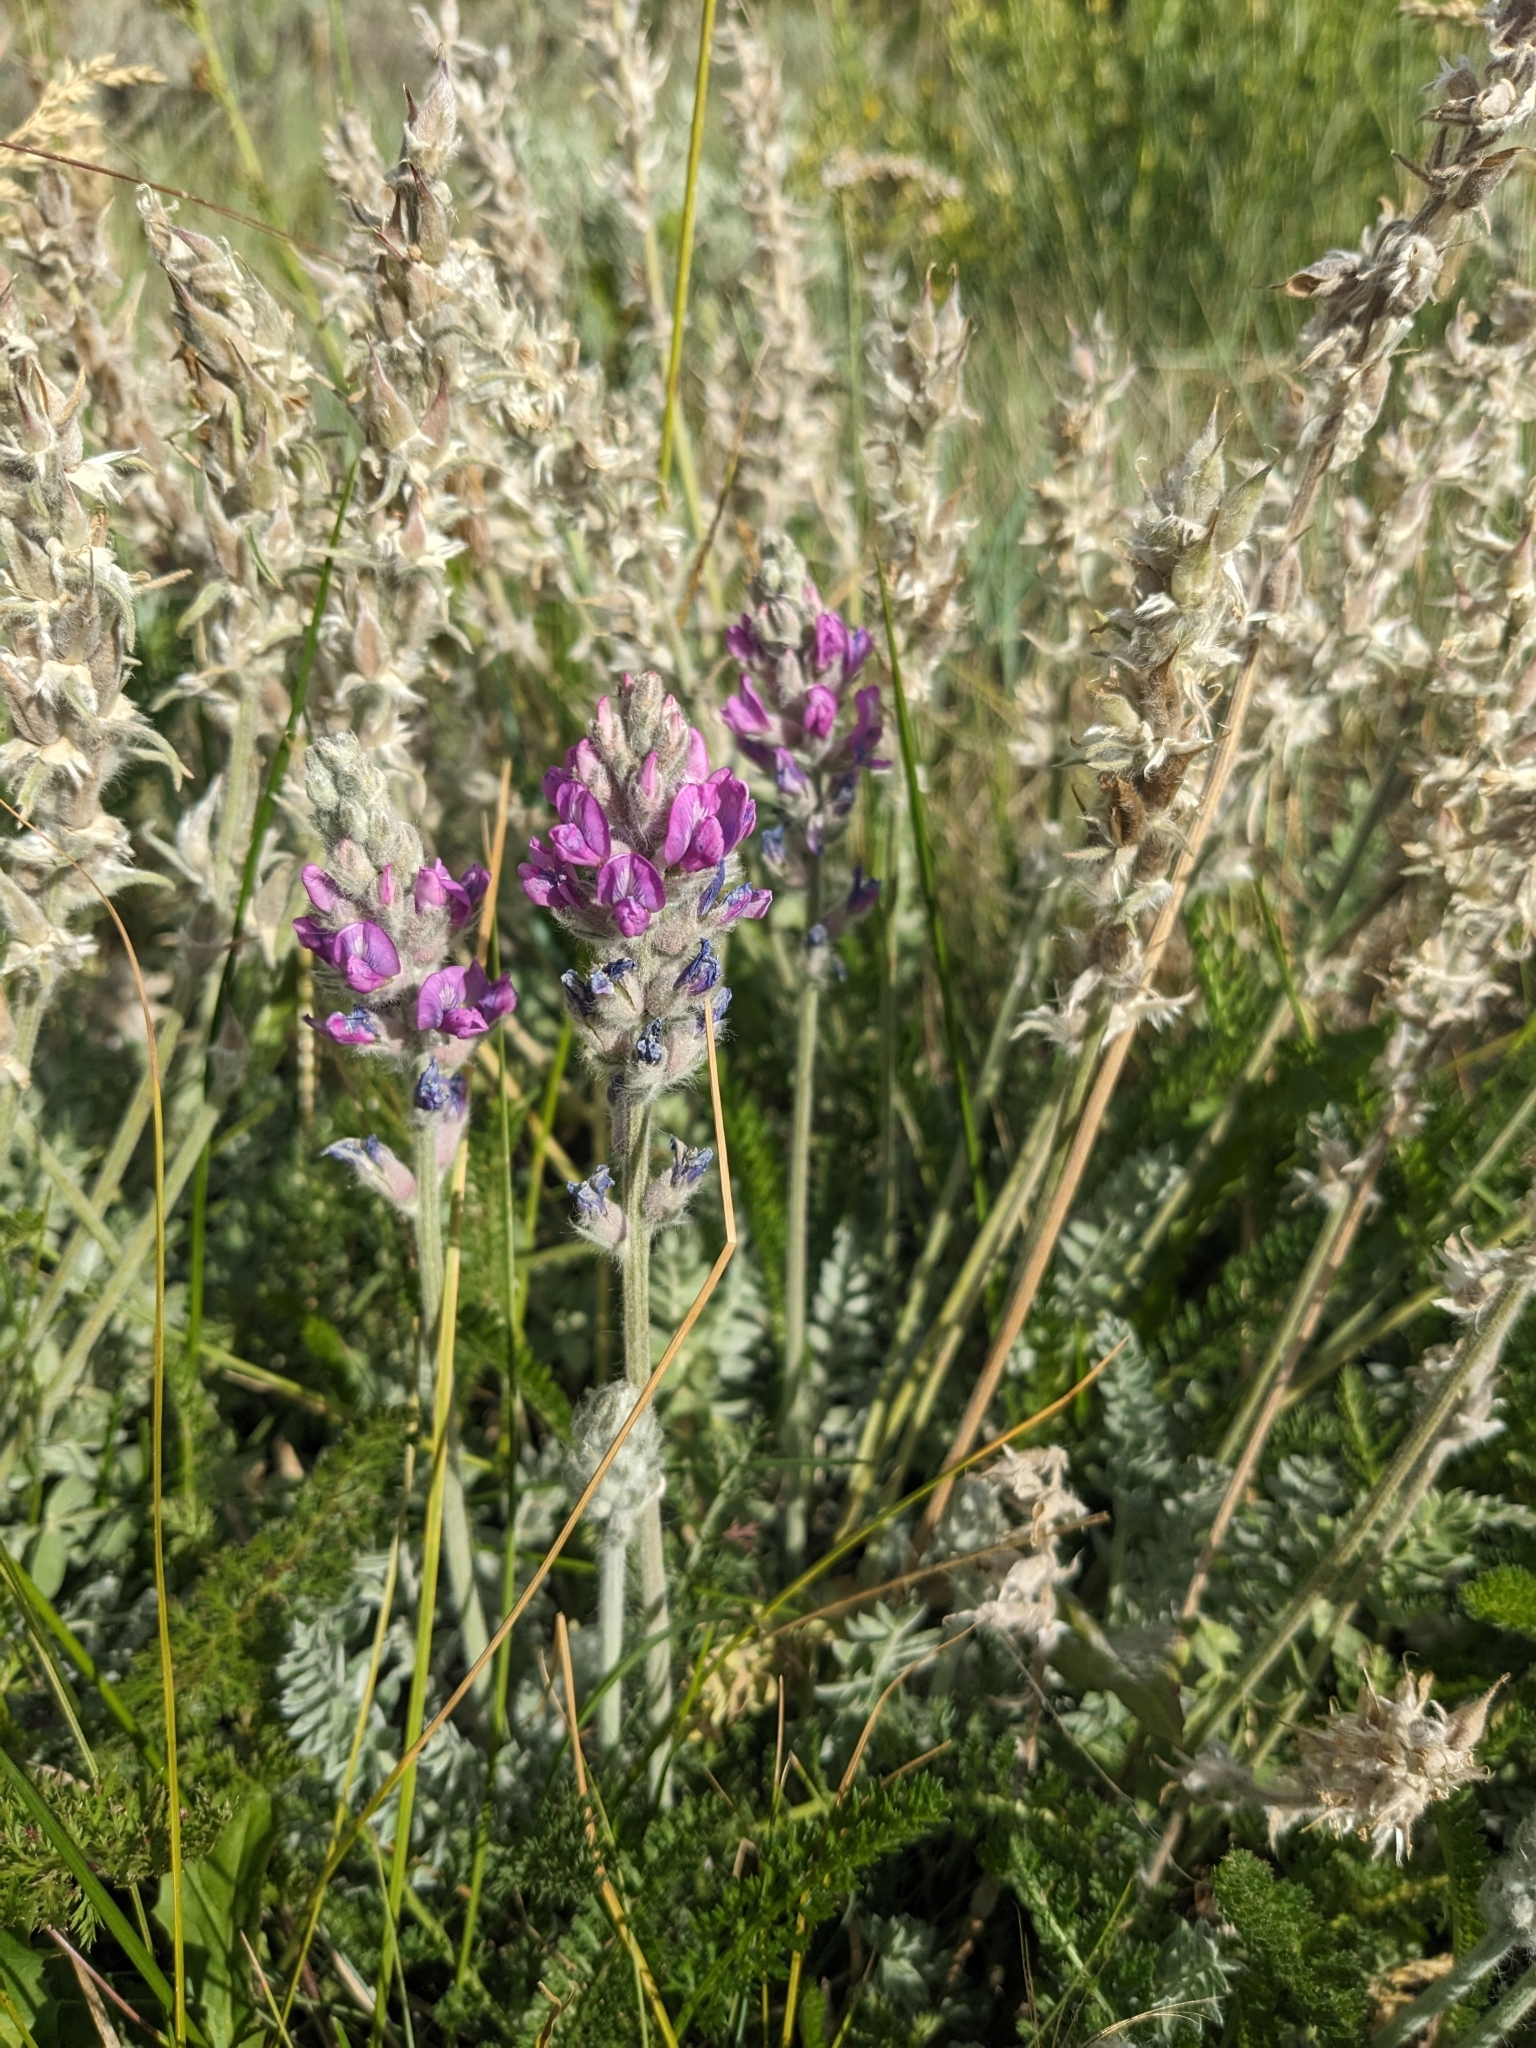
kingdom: Plantae
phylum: Tracheophyta
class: Magnoliopsida
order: Fabales
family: Fabaceae
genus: Oxytropis
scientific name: Oxytropis splendens
